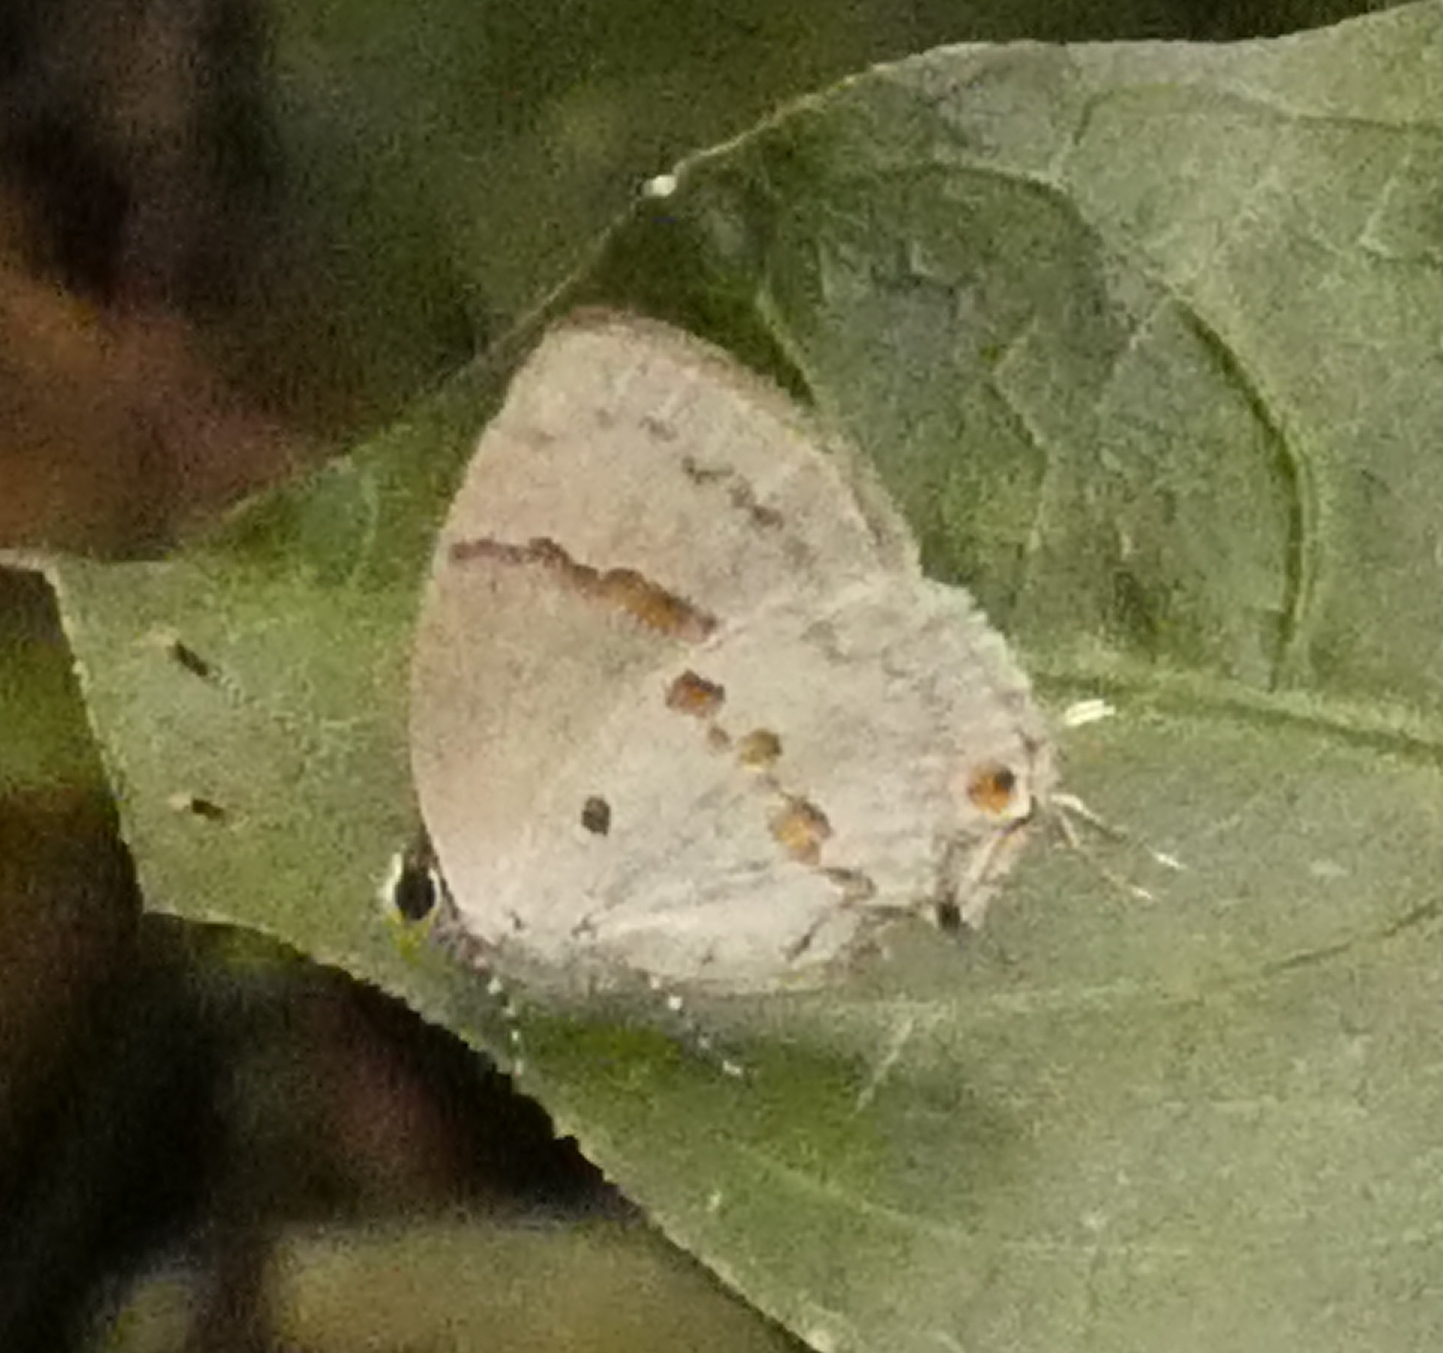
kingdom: Animalia
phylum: Arthropoda
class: Insecta
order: Lepidoptera
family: Lycaenidae
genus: Thecla
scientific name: Thecla celmus
